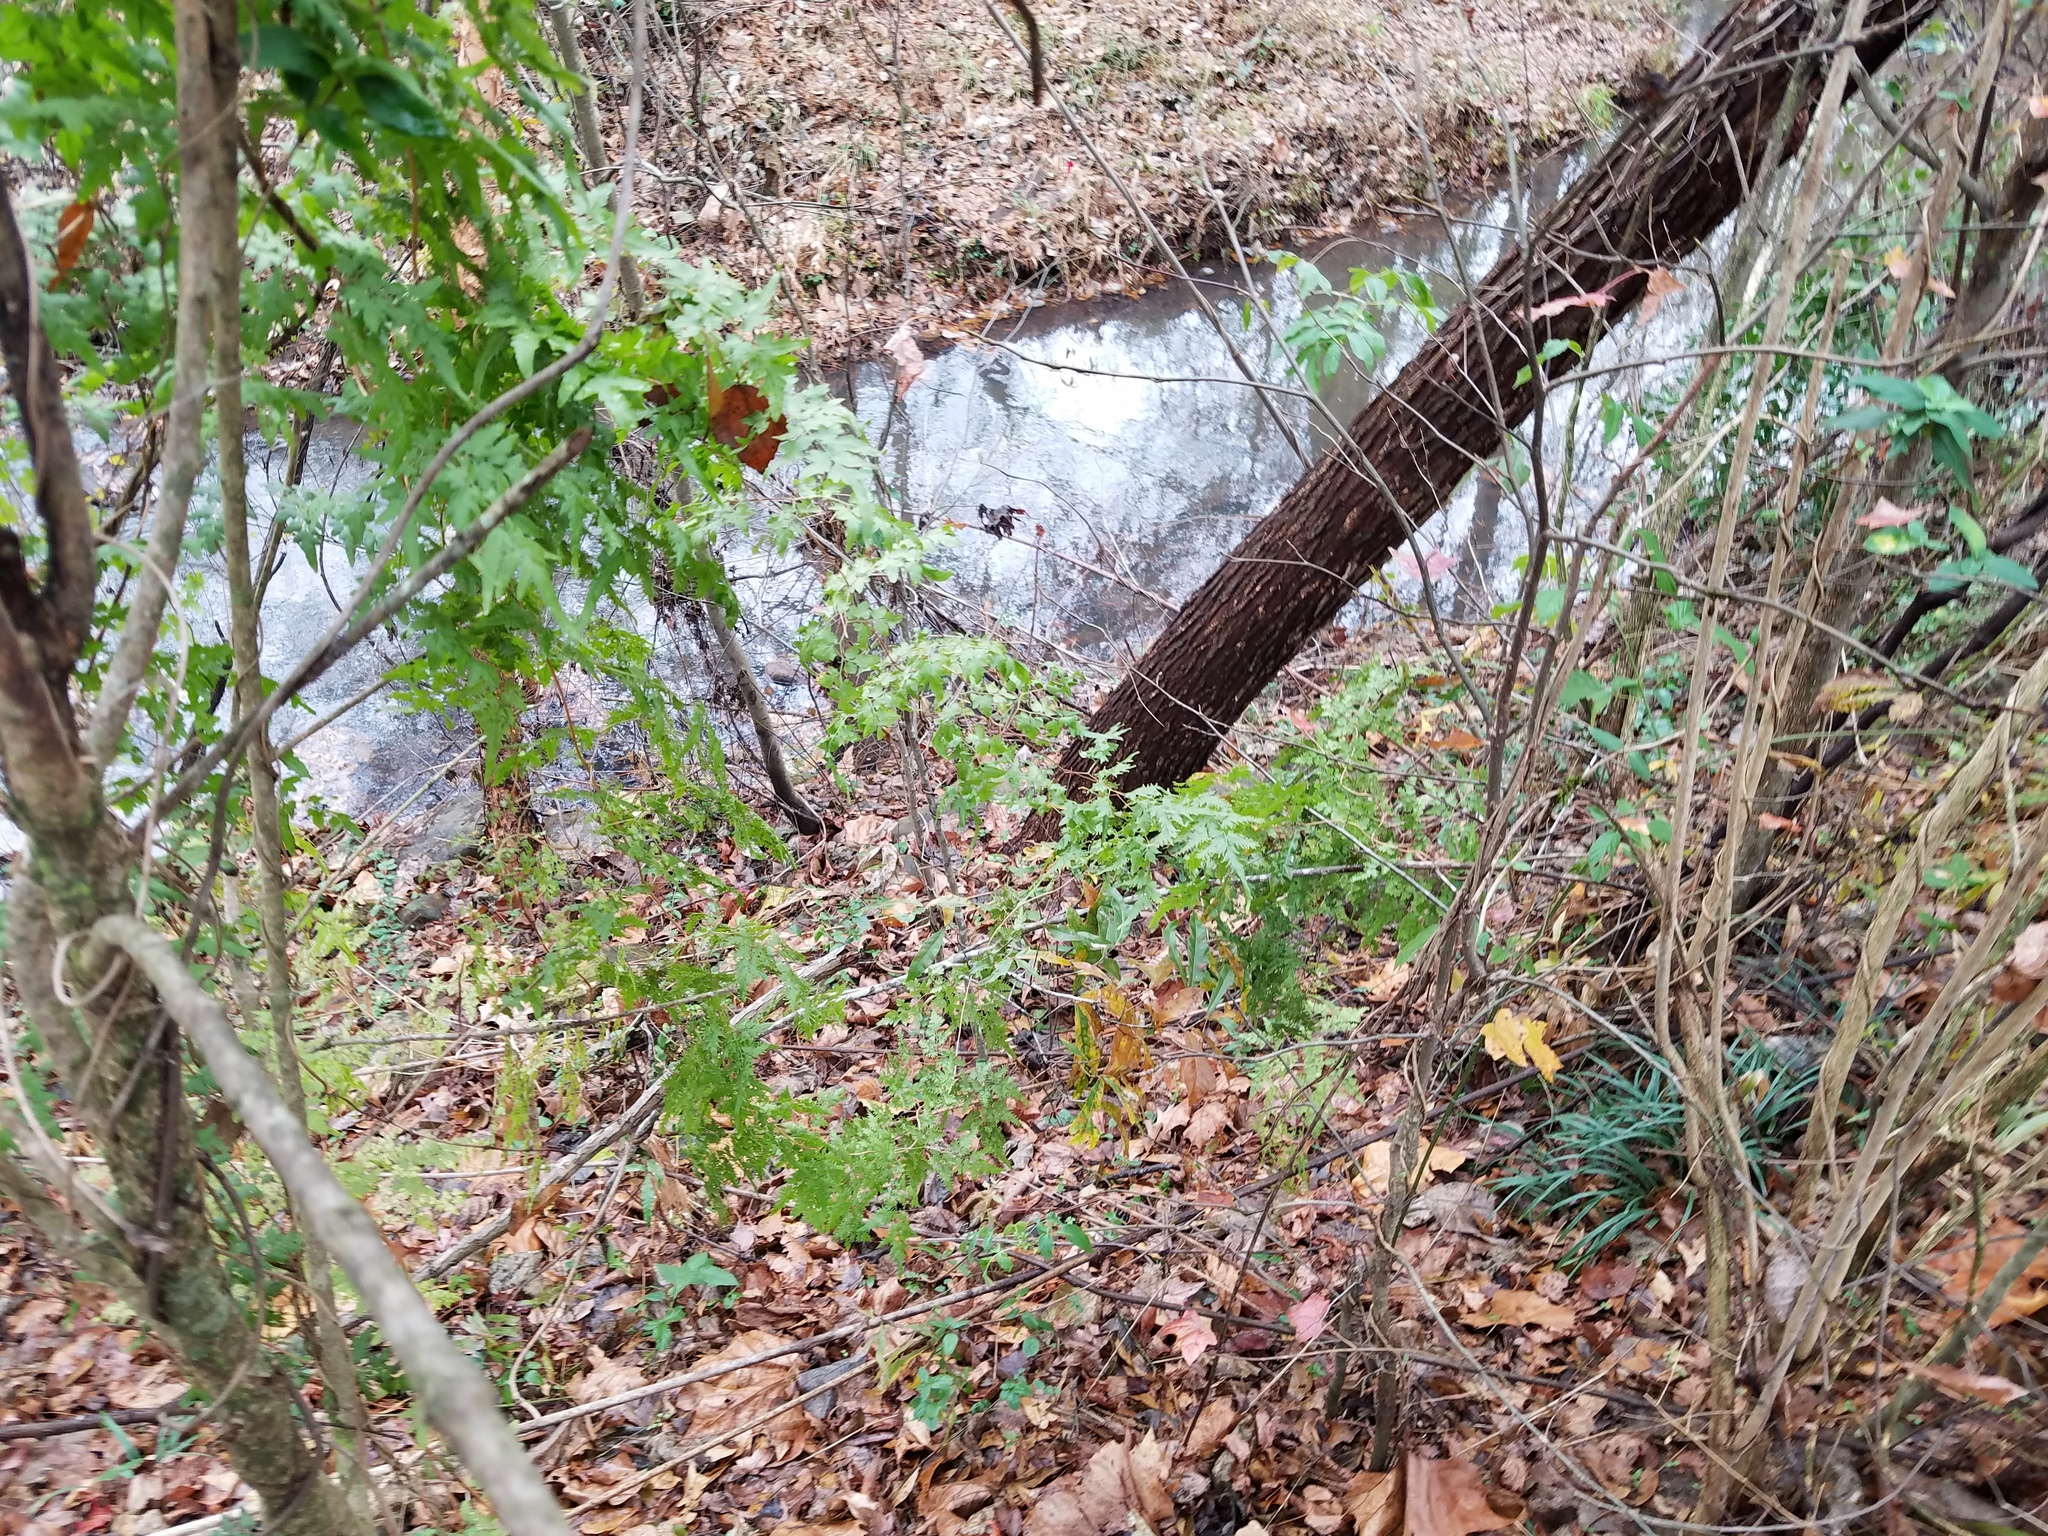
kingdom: Plantae
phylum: Tracheophyta
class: Polypodiopsida
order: Schizaeales
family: Lygodiaceae
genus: Lygodium
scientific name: Lygodium japonicum
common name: Japanese climbing fern
